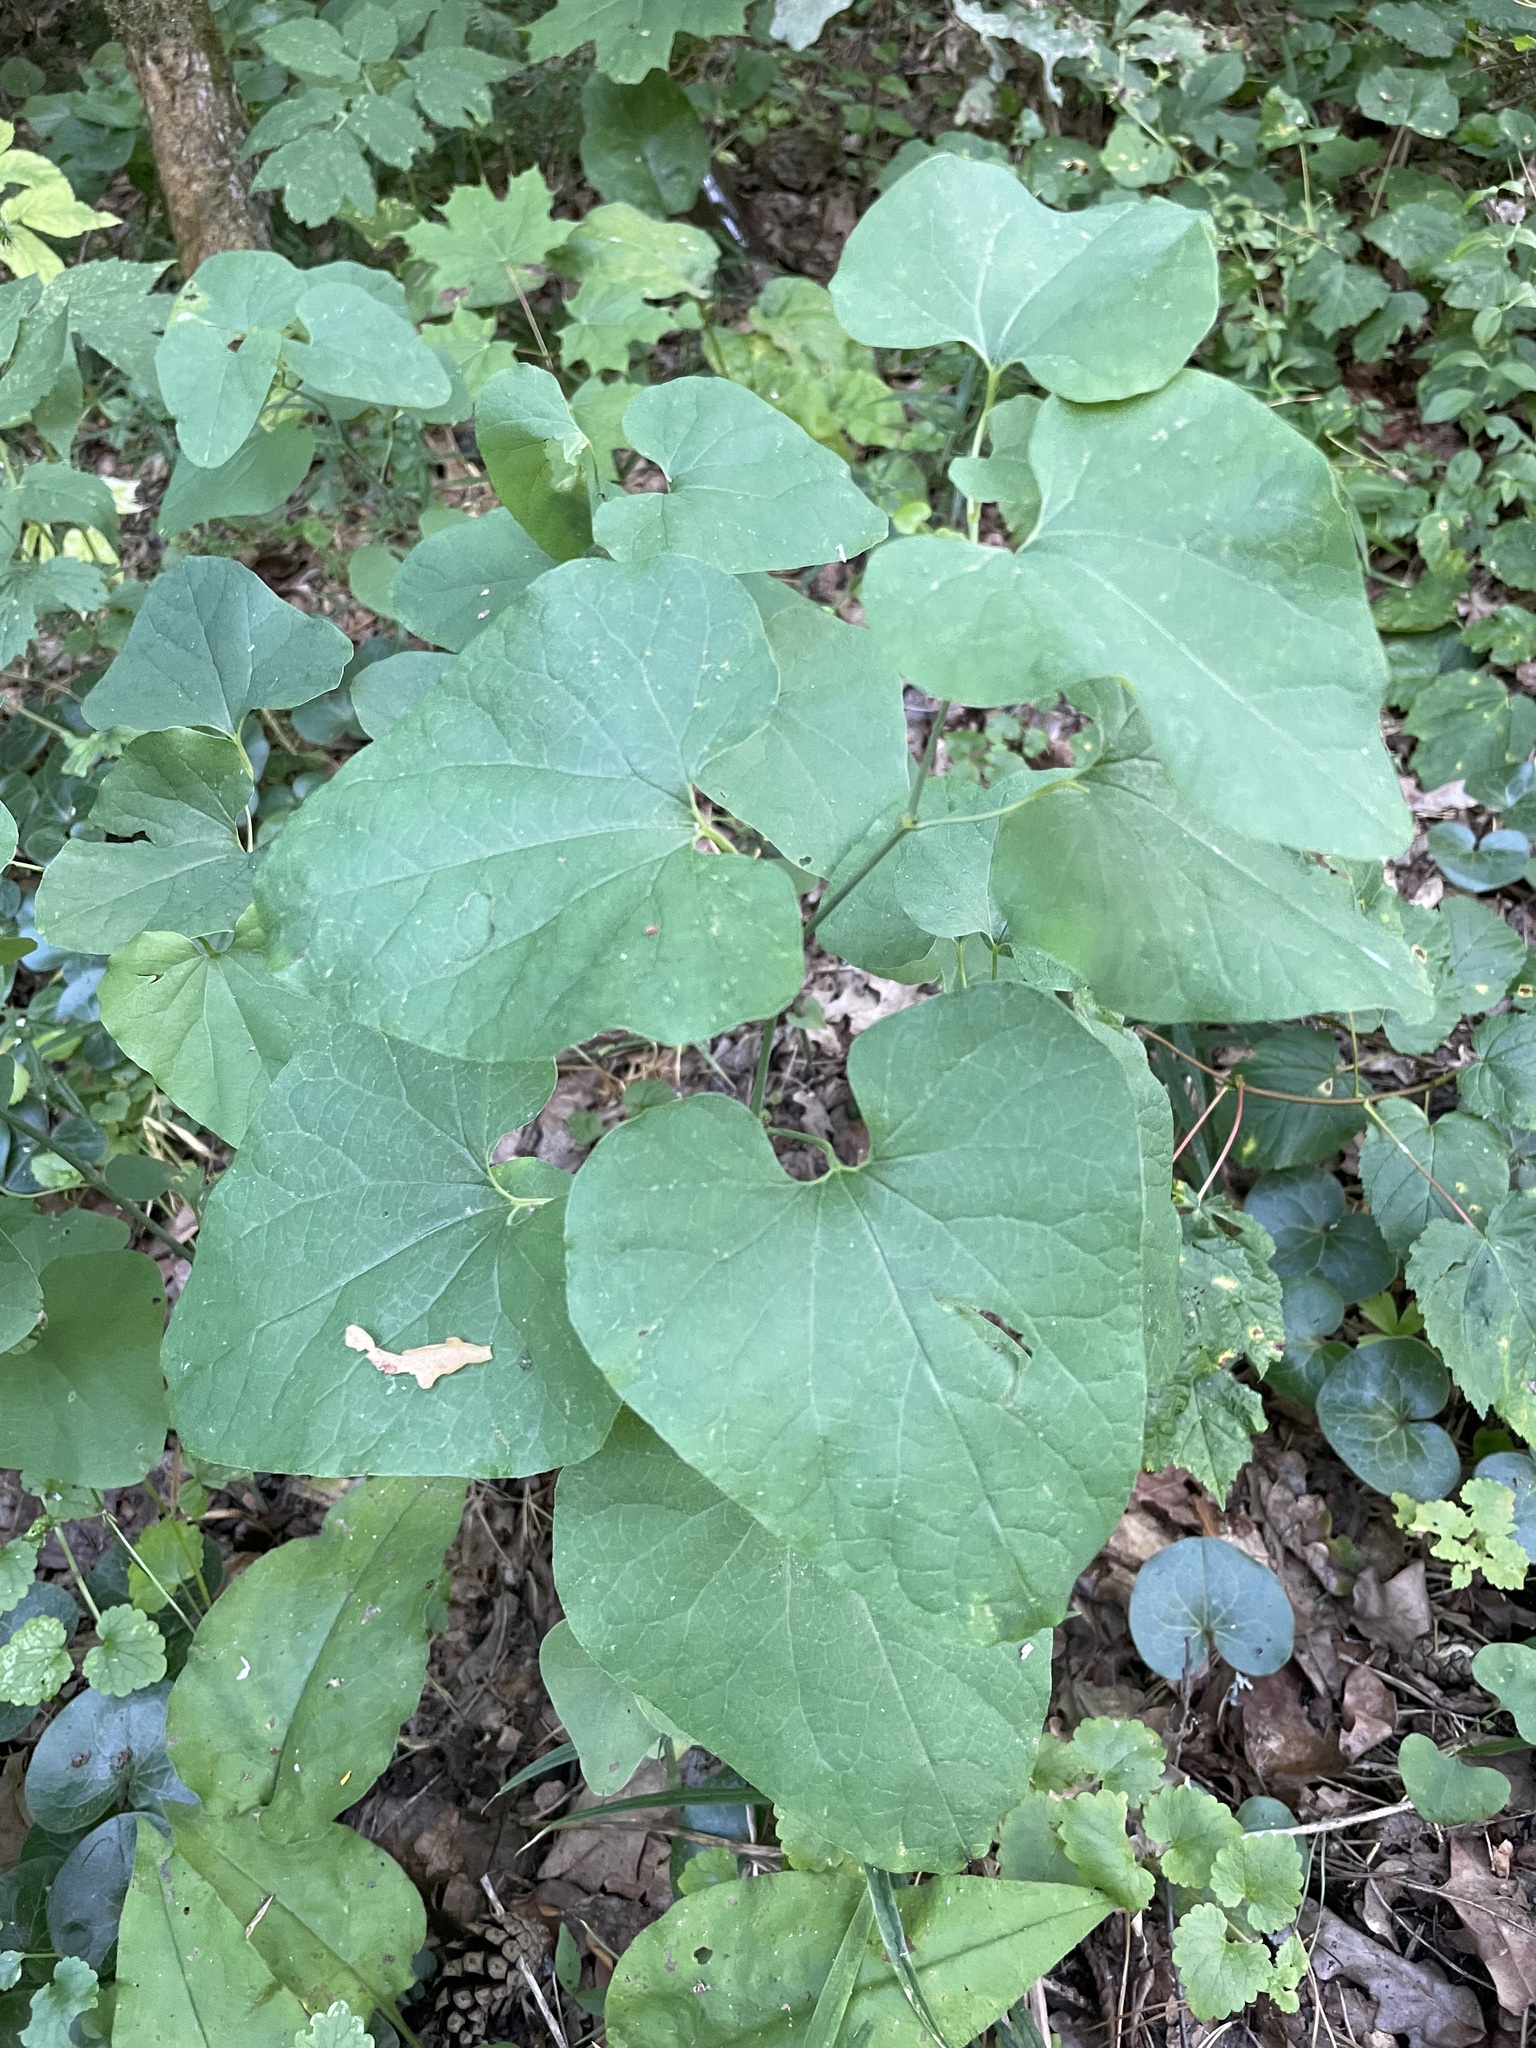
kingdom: Plantae
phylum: Tracheophyta
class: Magnoliopsida
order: Piperales
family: Aristolochiaceae
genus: Aristolochia
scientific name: Aristolochia clematitis
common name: Birthwort
